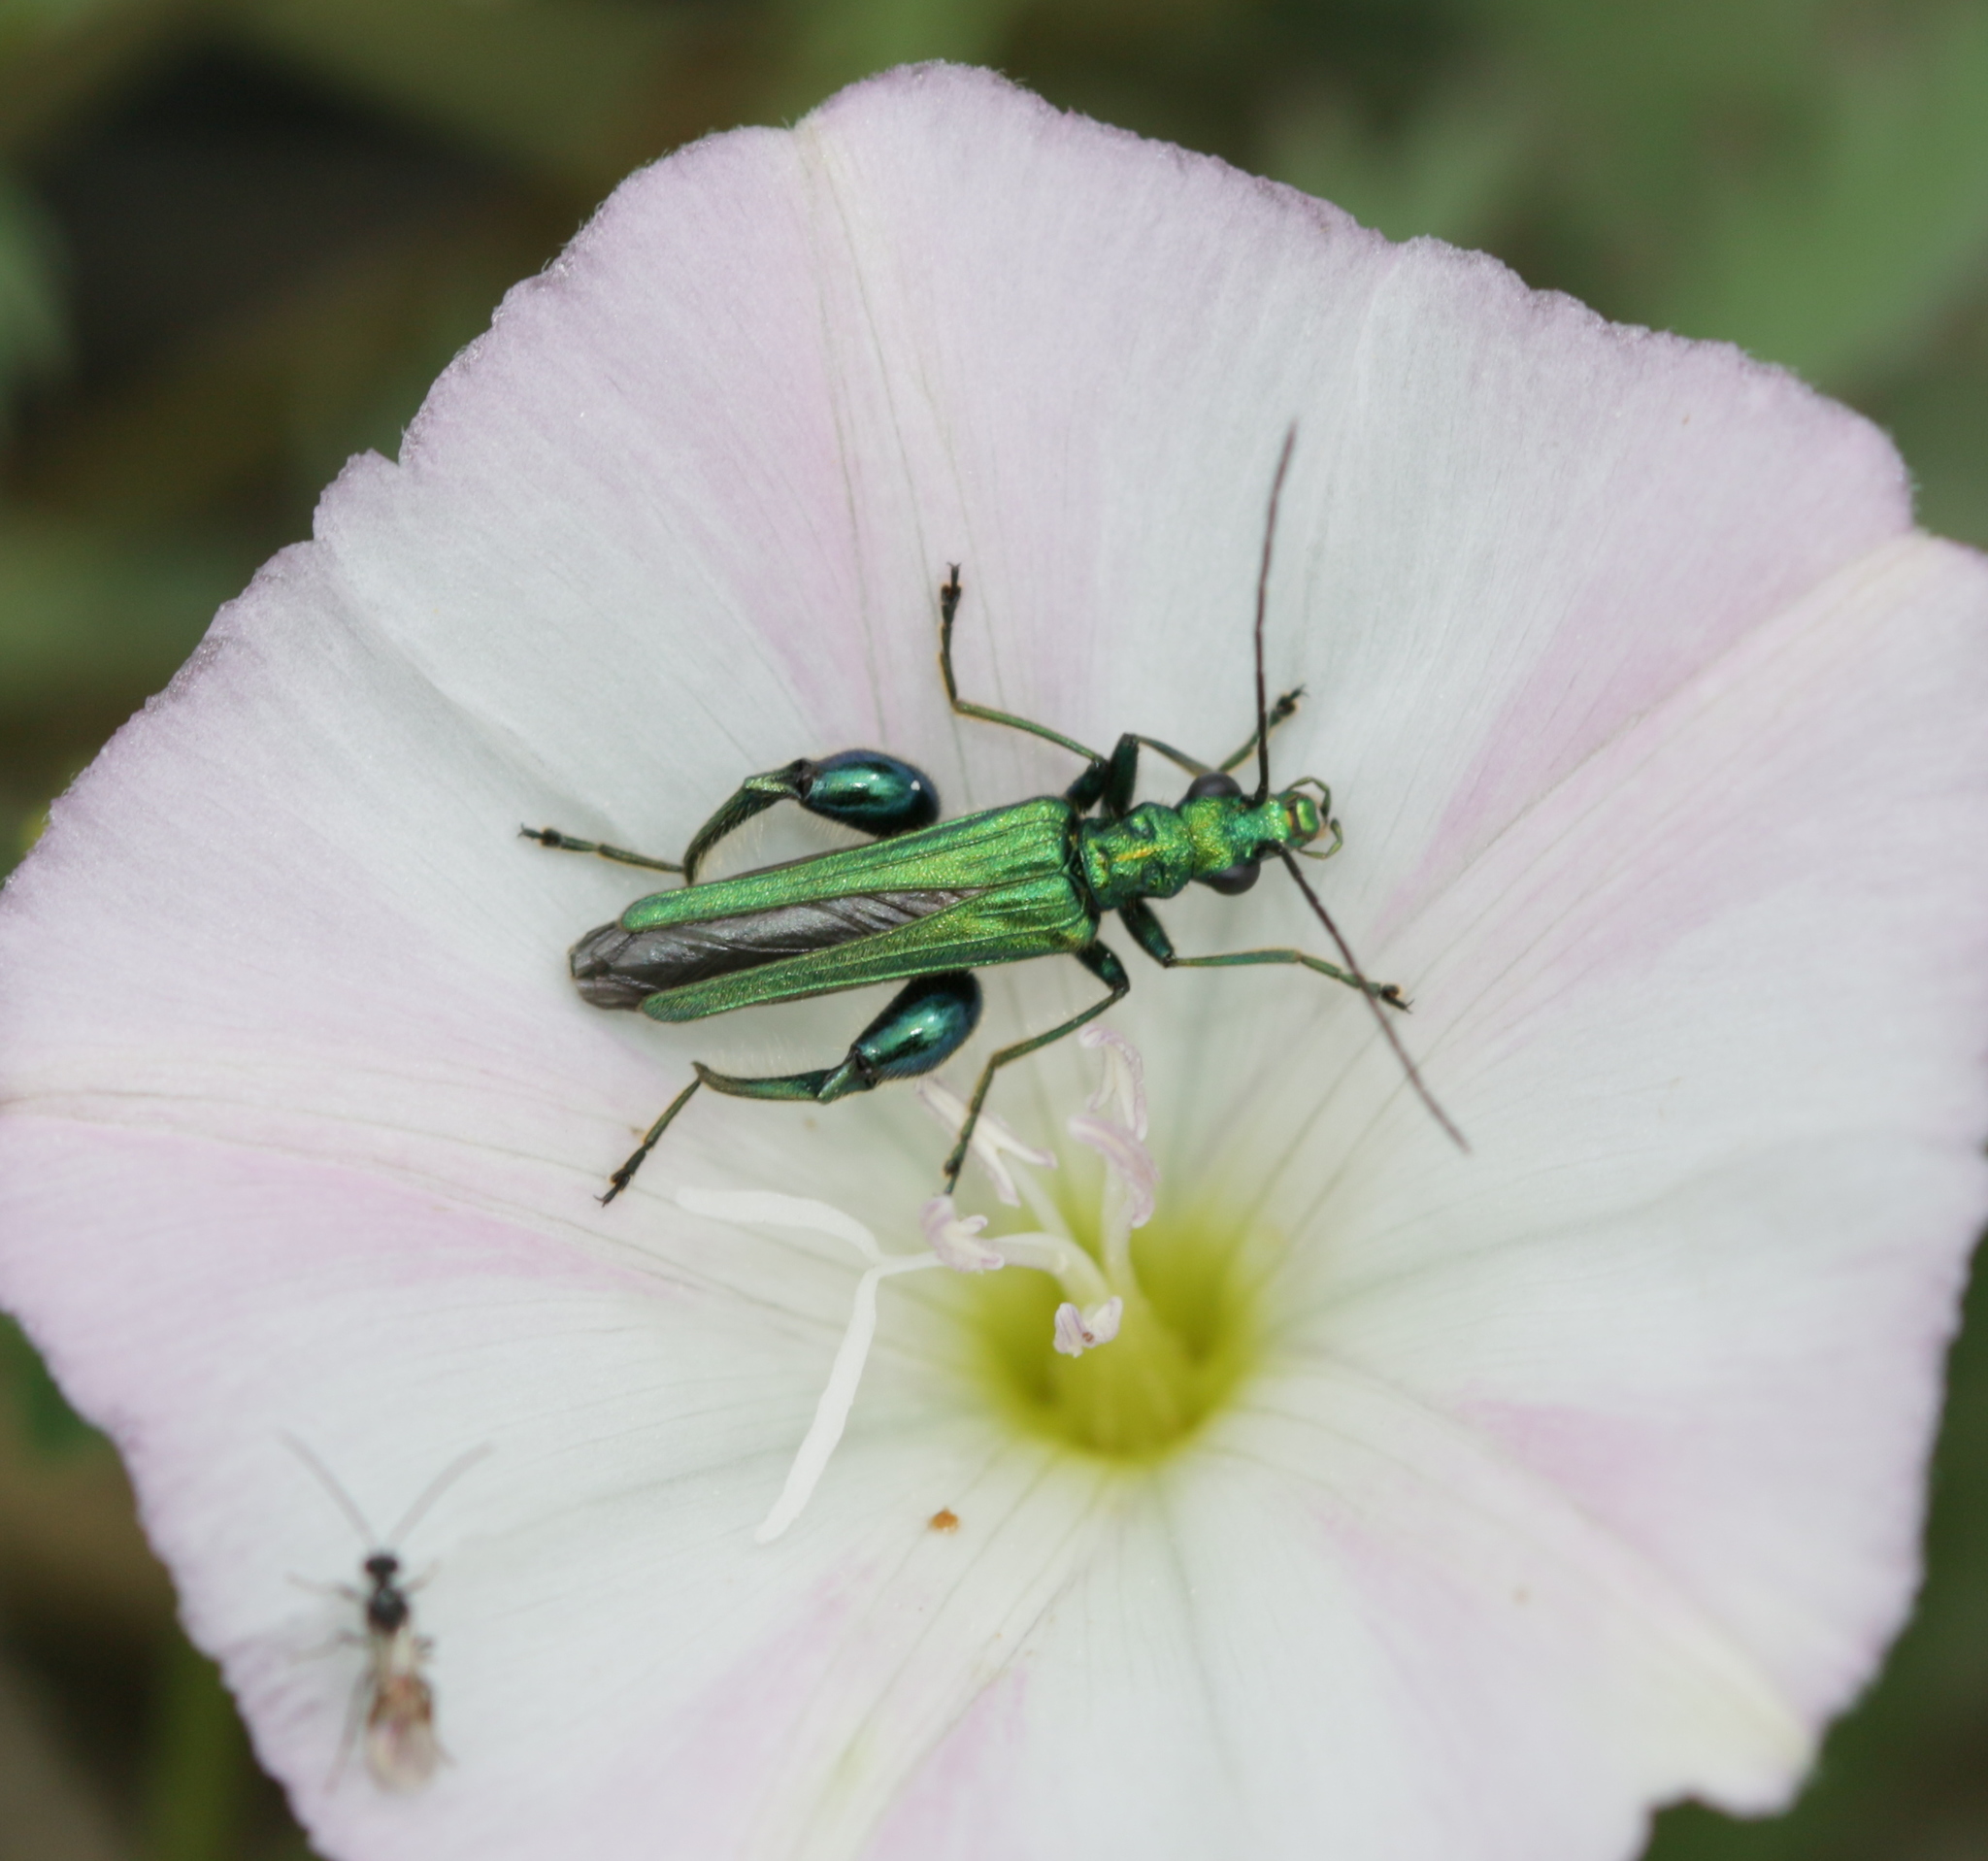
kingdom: Animalia
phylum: Arthropoda
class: Insecta
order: Coleoptera
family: Oedemeridae
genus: Oedemera
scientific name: Oedemera nobilis
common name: Swollen-thighed beetle
